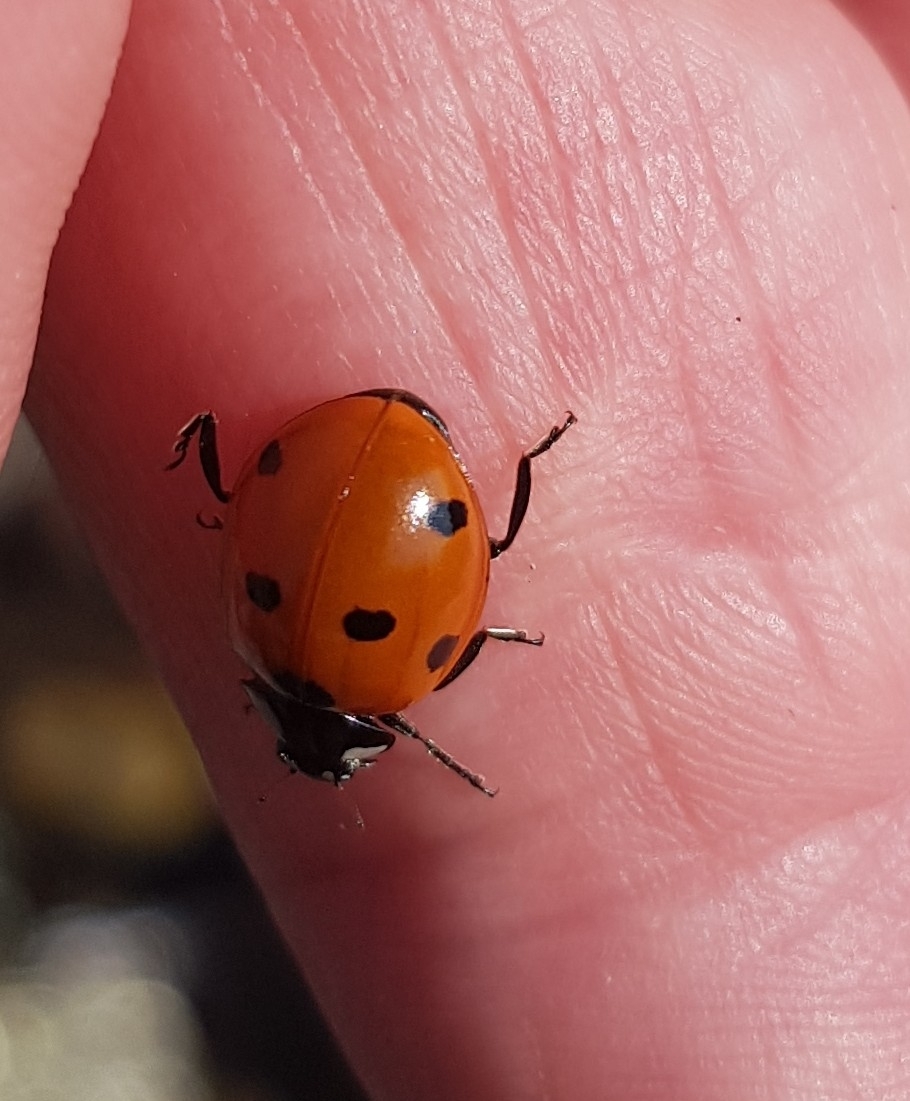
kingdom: Animalia
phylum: Arthropoda
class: Insecta
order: Coleoptera
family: Coccinellidae
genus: Coccinella
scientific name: Coccinella septempunctata
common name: Sevenspotted lady beetle
